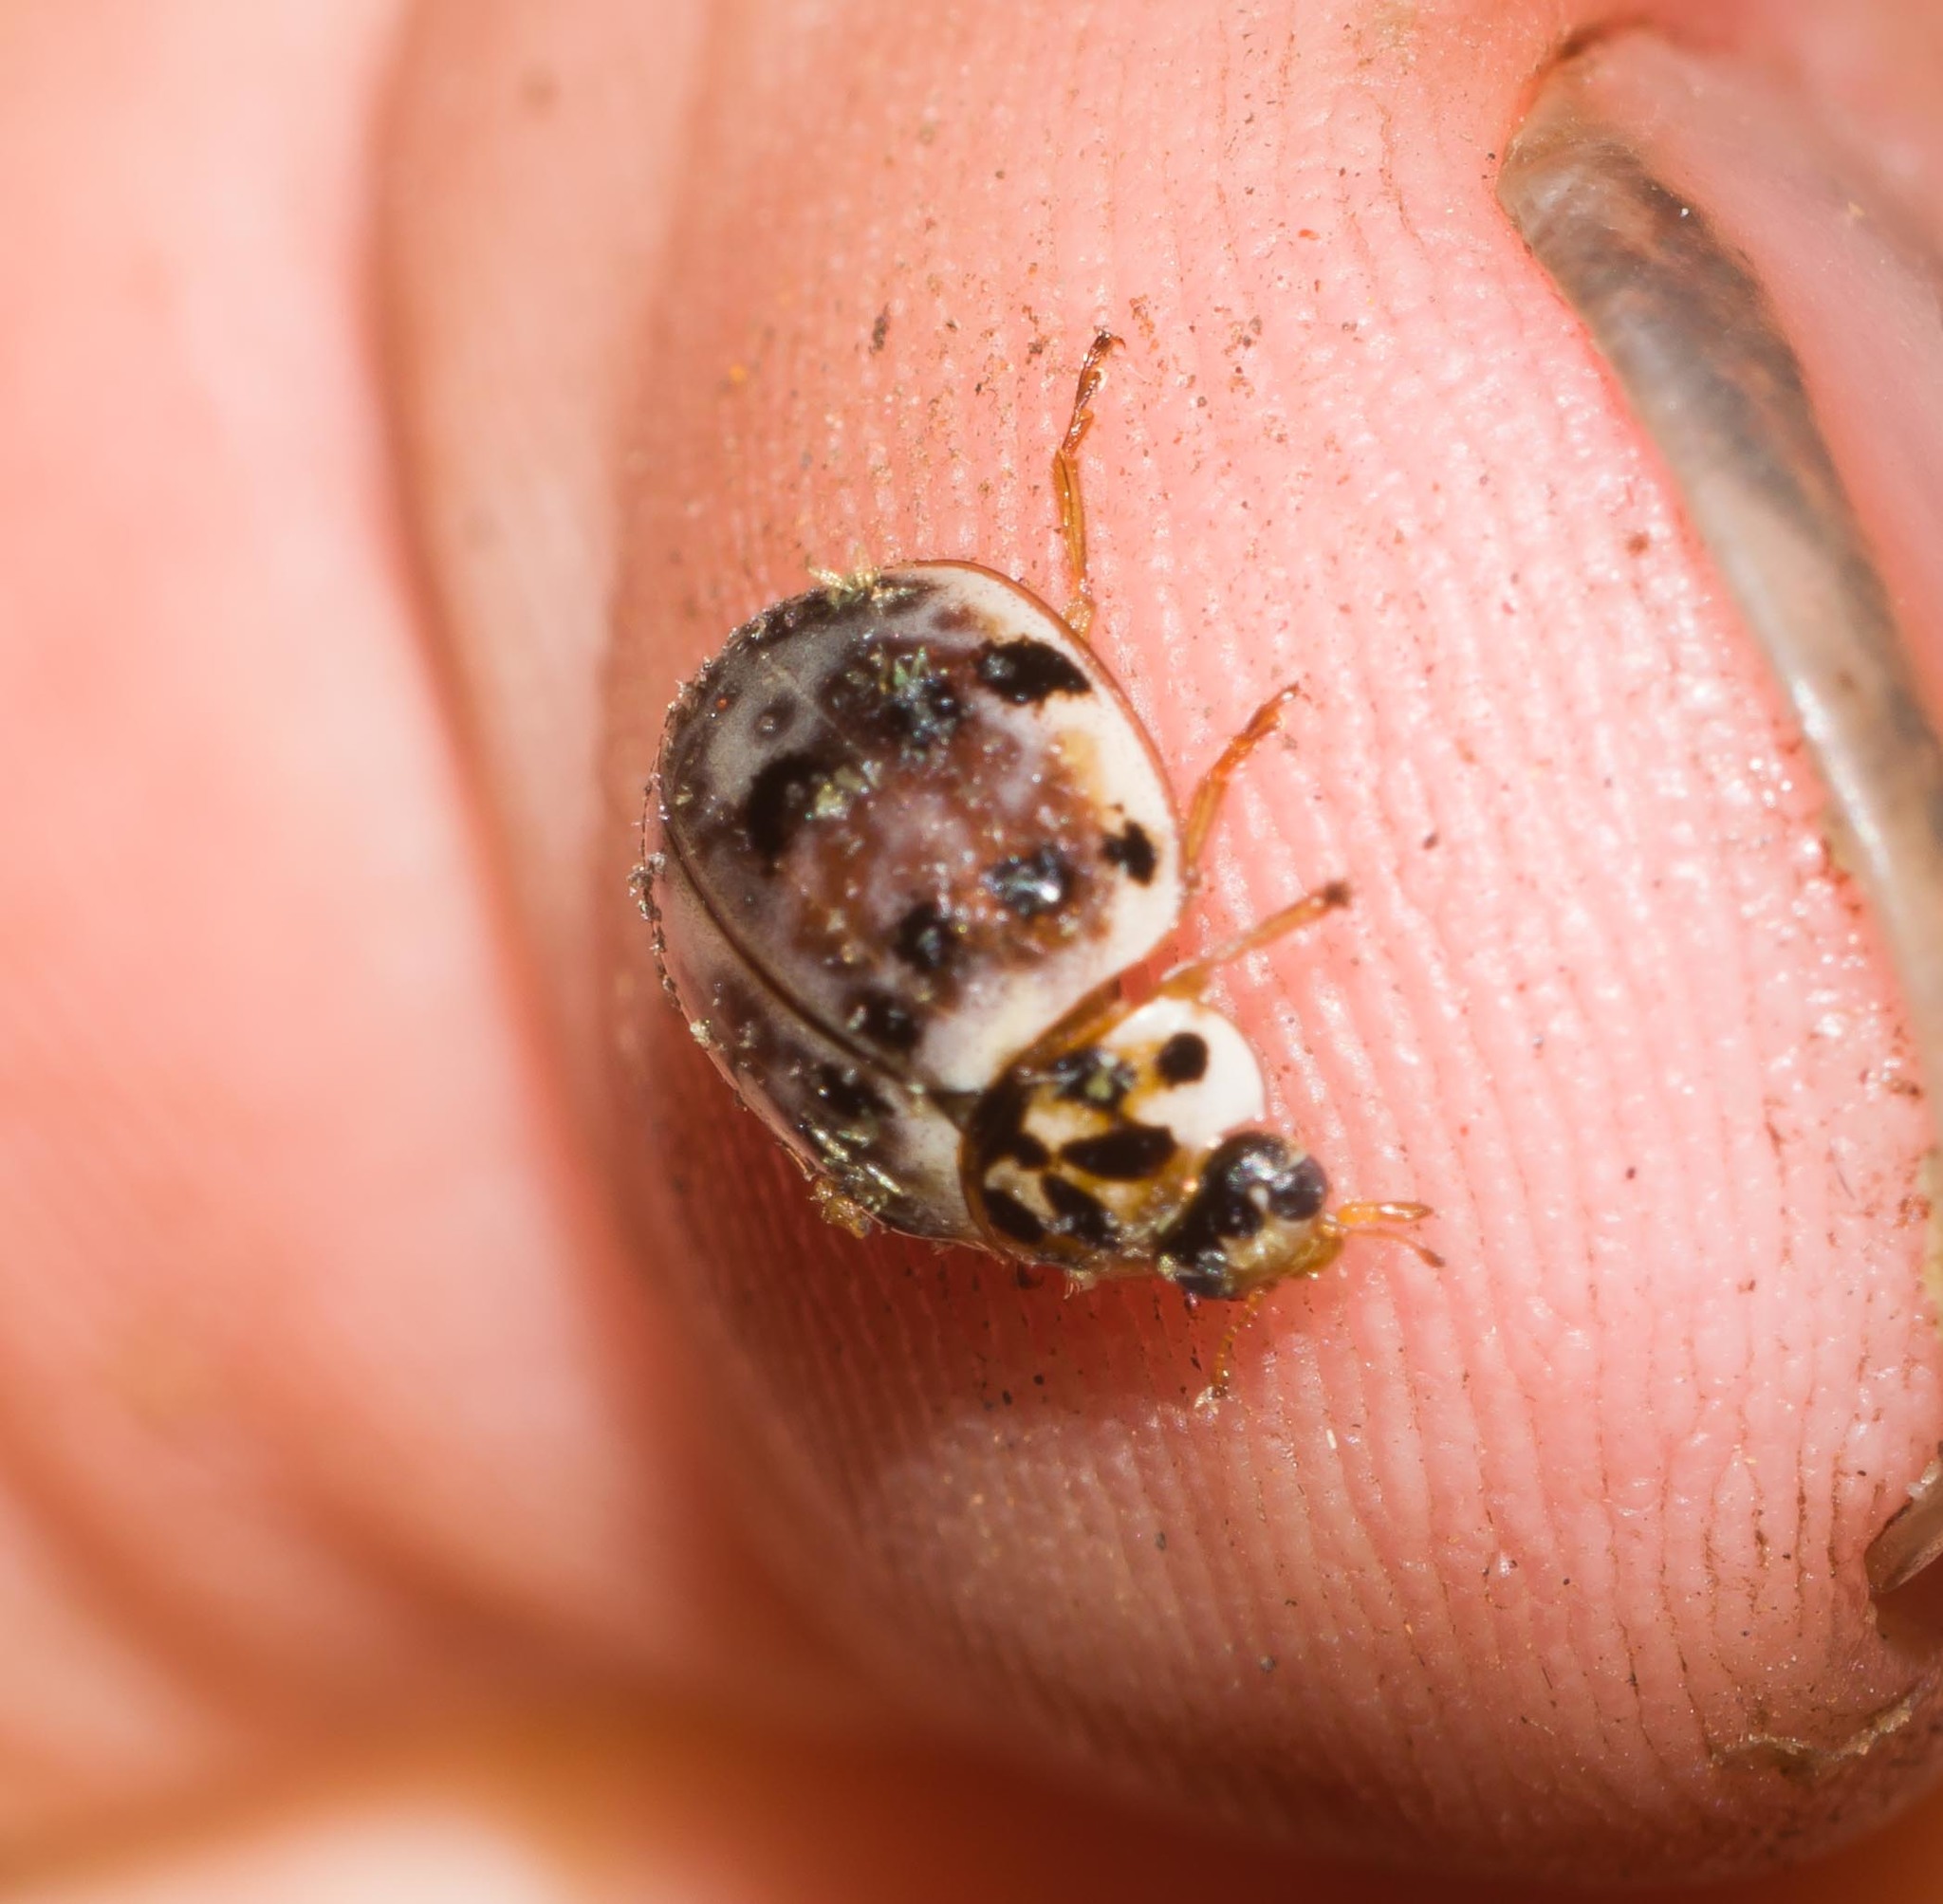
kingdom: Animalia
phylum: Arthropoda
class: Insecta
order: Coleoptera
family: Coccinellidae
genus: Olla
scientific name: Olla v-nigrum
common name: Ashy gray lady beetle
